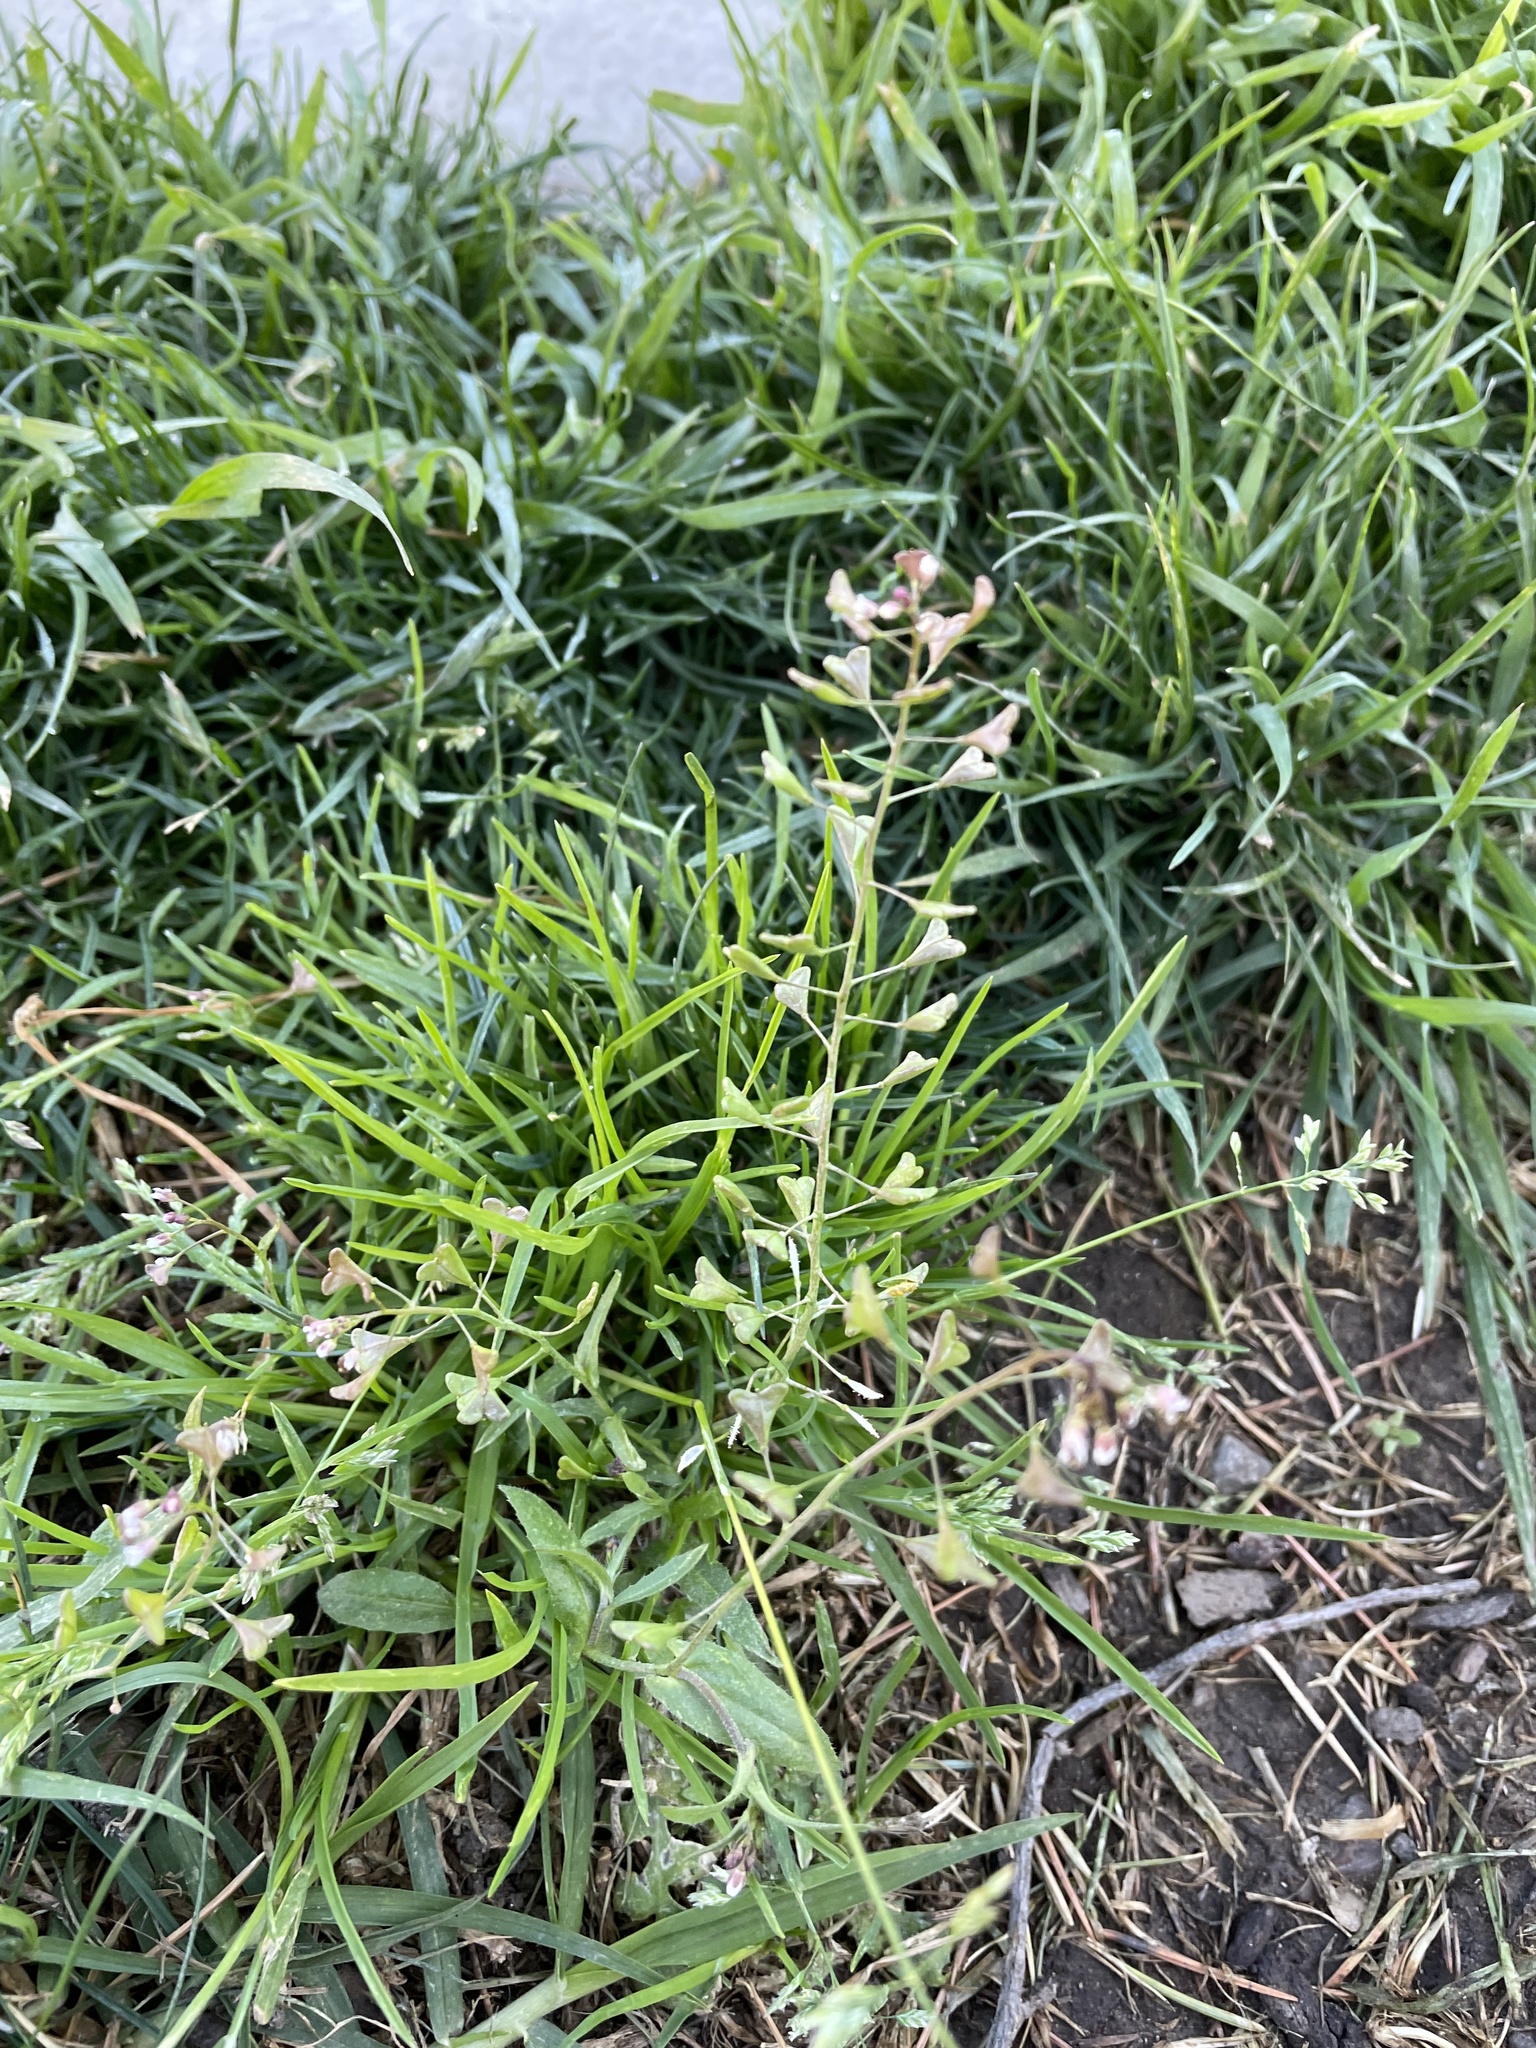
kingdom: Plantae
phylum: Tracheophyta
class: Magnoliopsida
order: Brassicales
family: Brassicaceae
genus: Capsella
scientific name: Capsella bursa-pastoris
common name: Shepherd's purse
